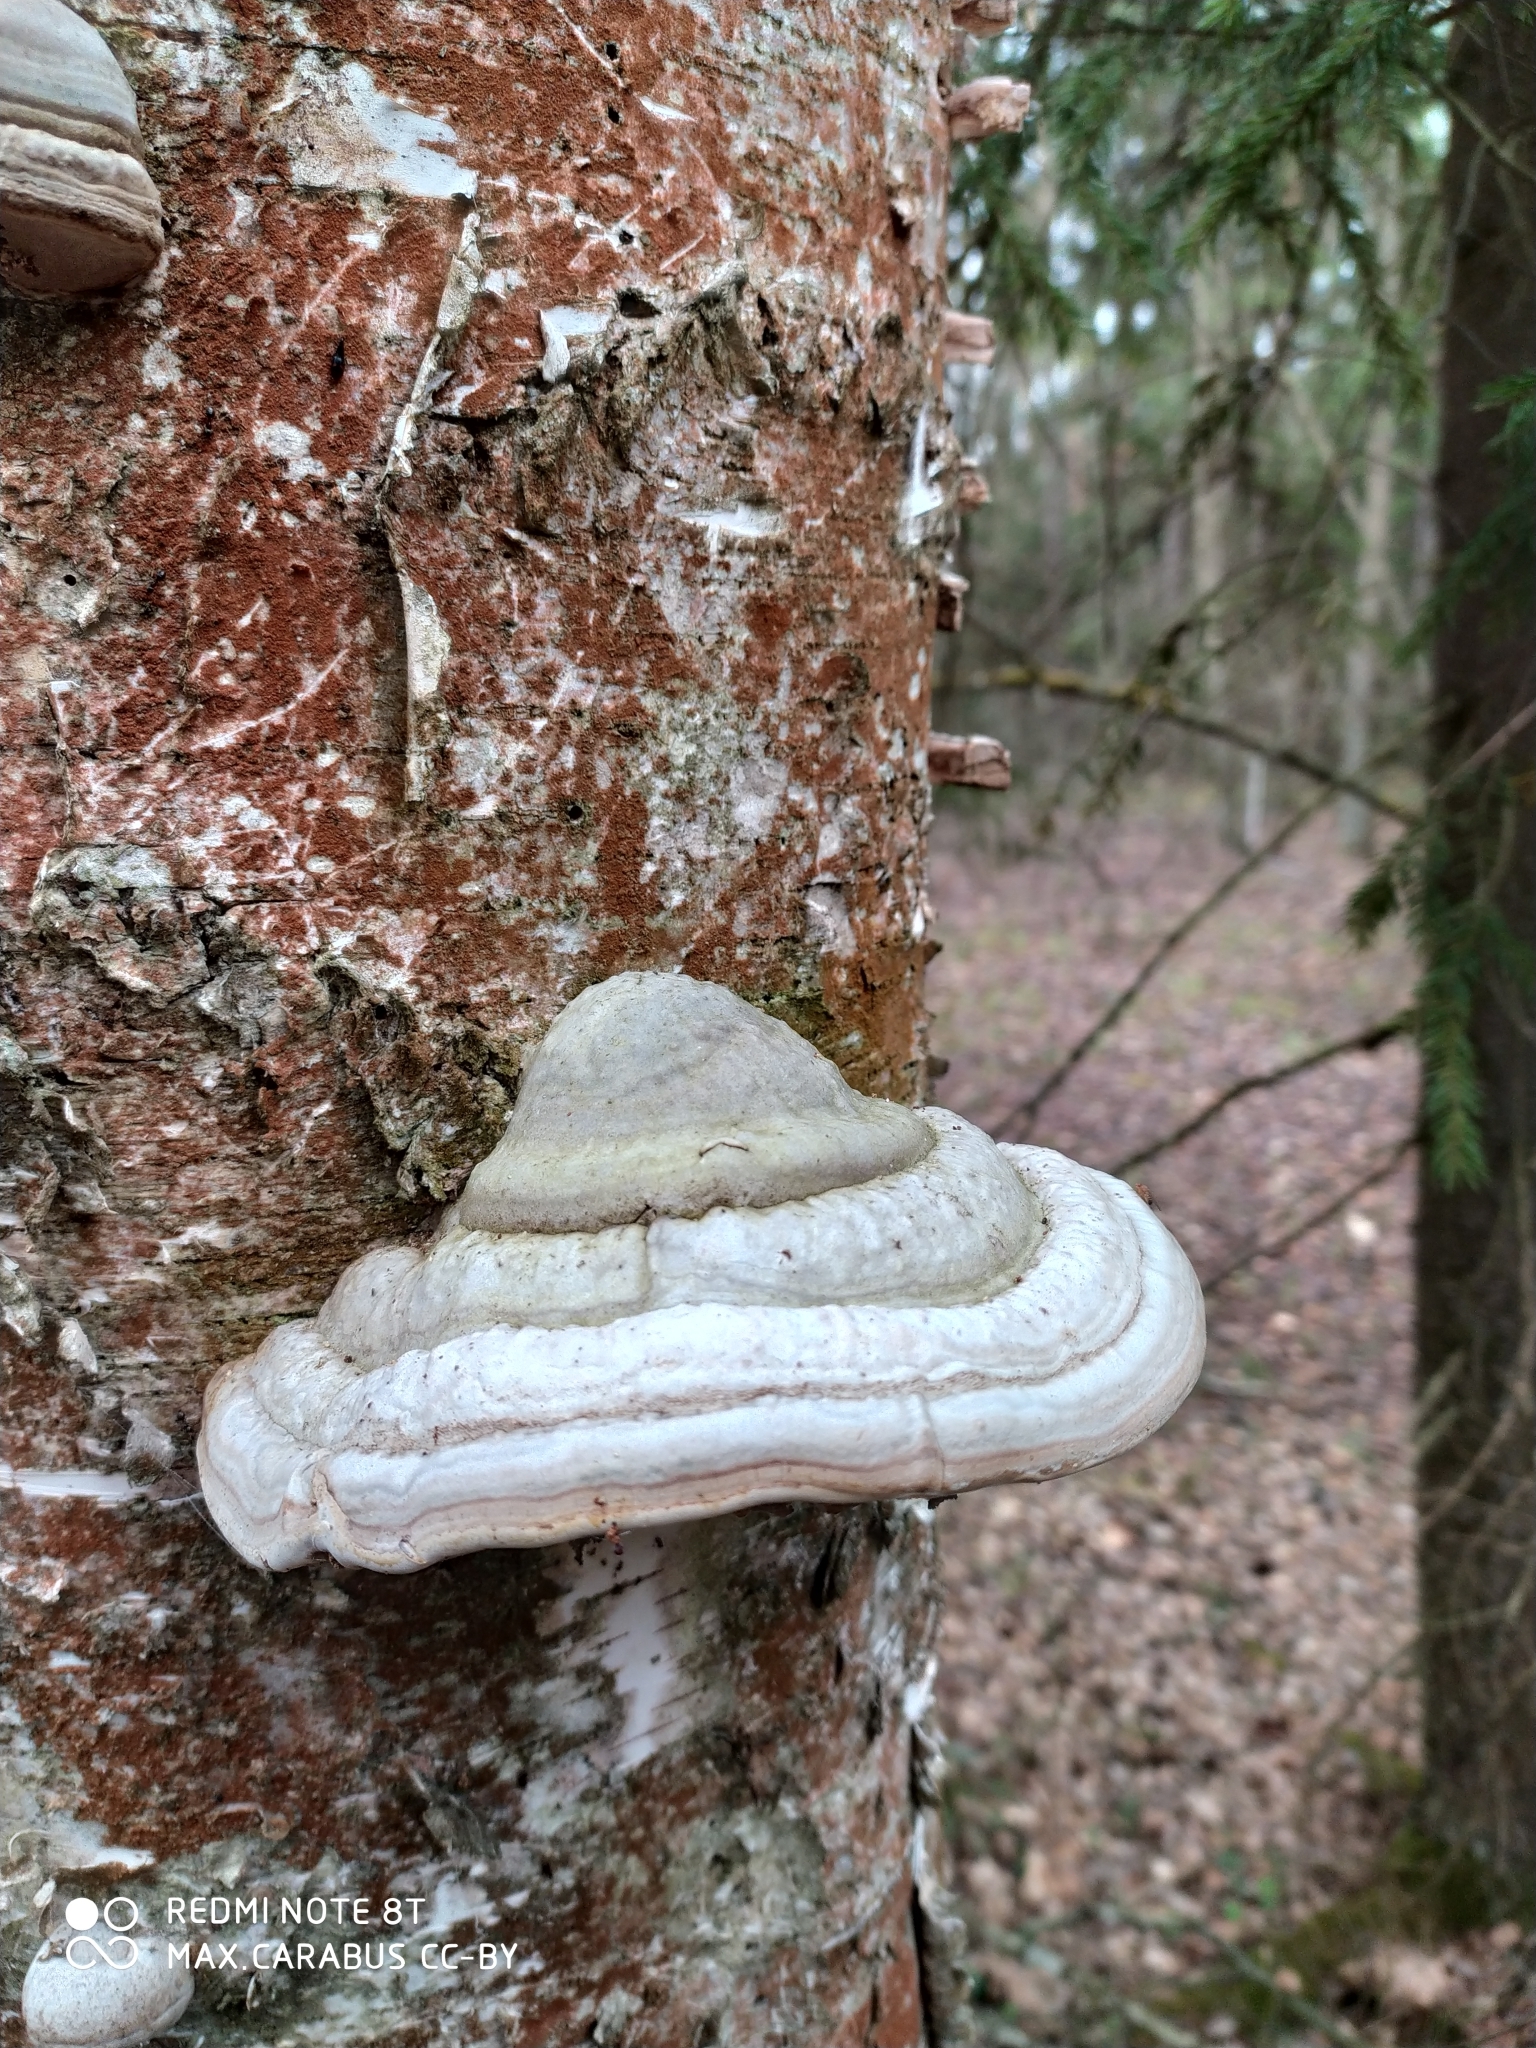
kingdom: Fungi
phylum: Basidiomycota
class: Agaricomycetes
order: Polyporales
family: Polyporaceae
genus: Fomes
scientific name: Fomes fomentarius
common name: Hoof fungus
